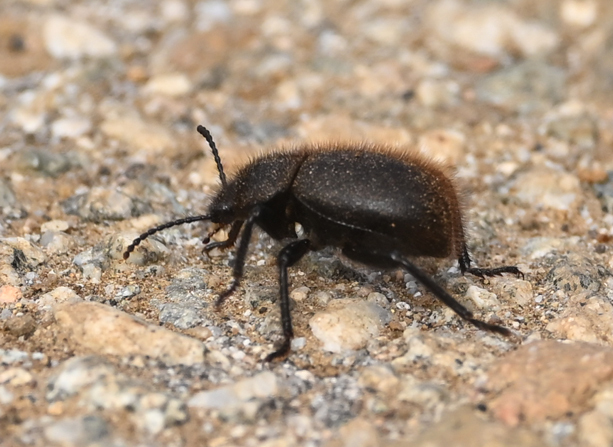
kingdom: Animalia
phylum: Arthropoda
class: Insecta
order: Coleoptera
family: Tenebrionidae
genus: Eleodes
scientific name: Eleodes osculans
